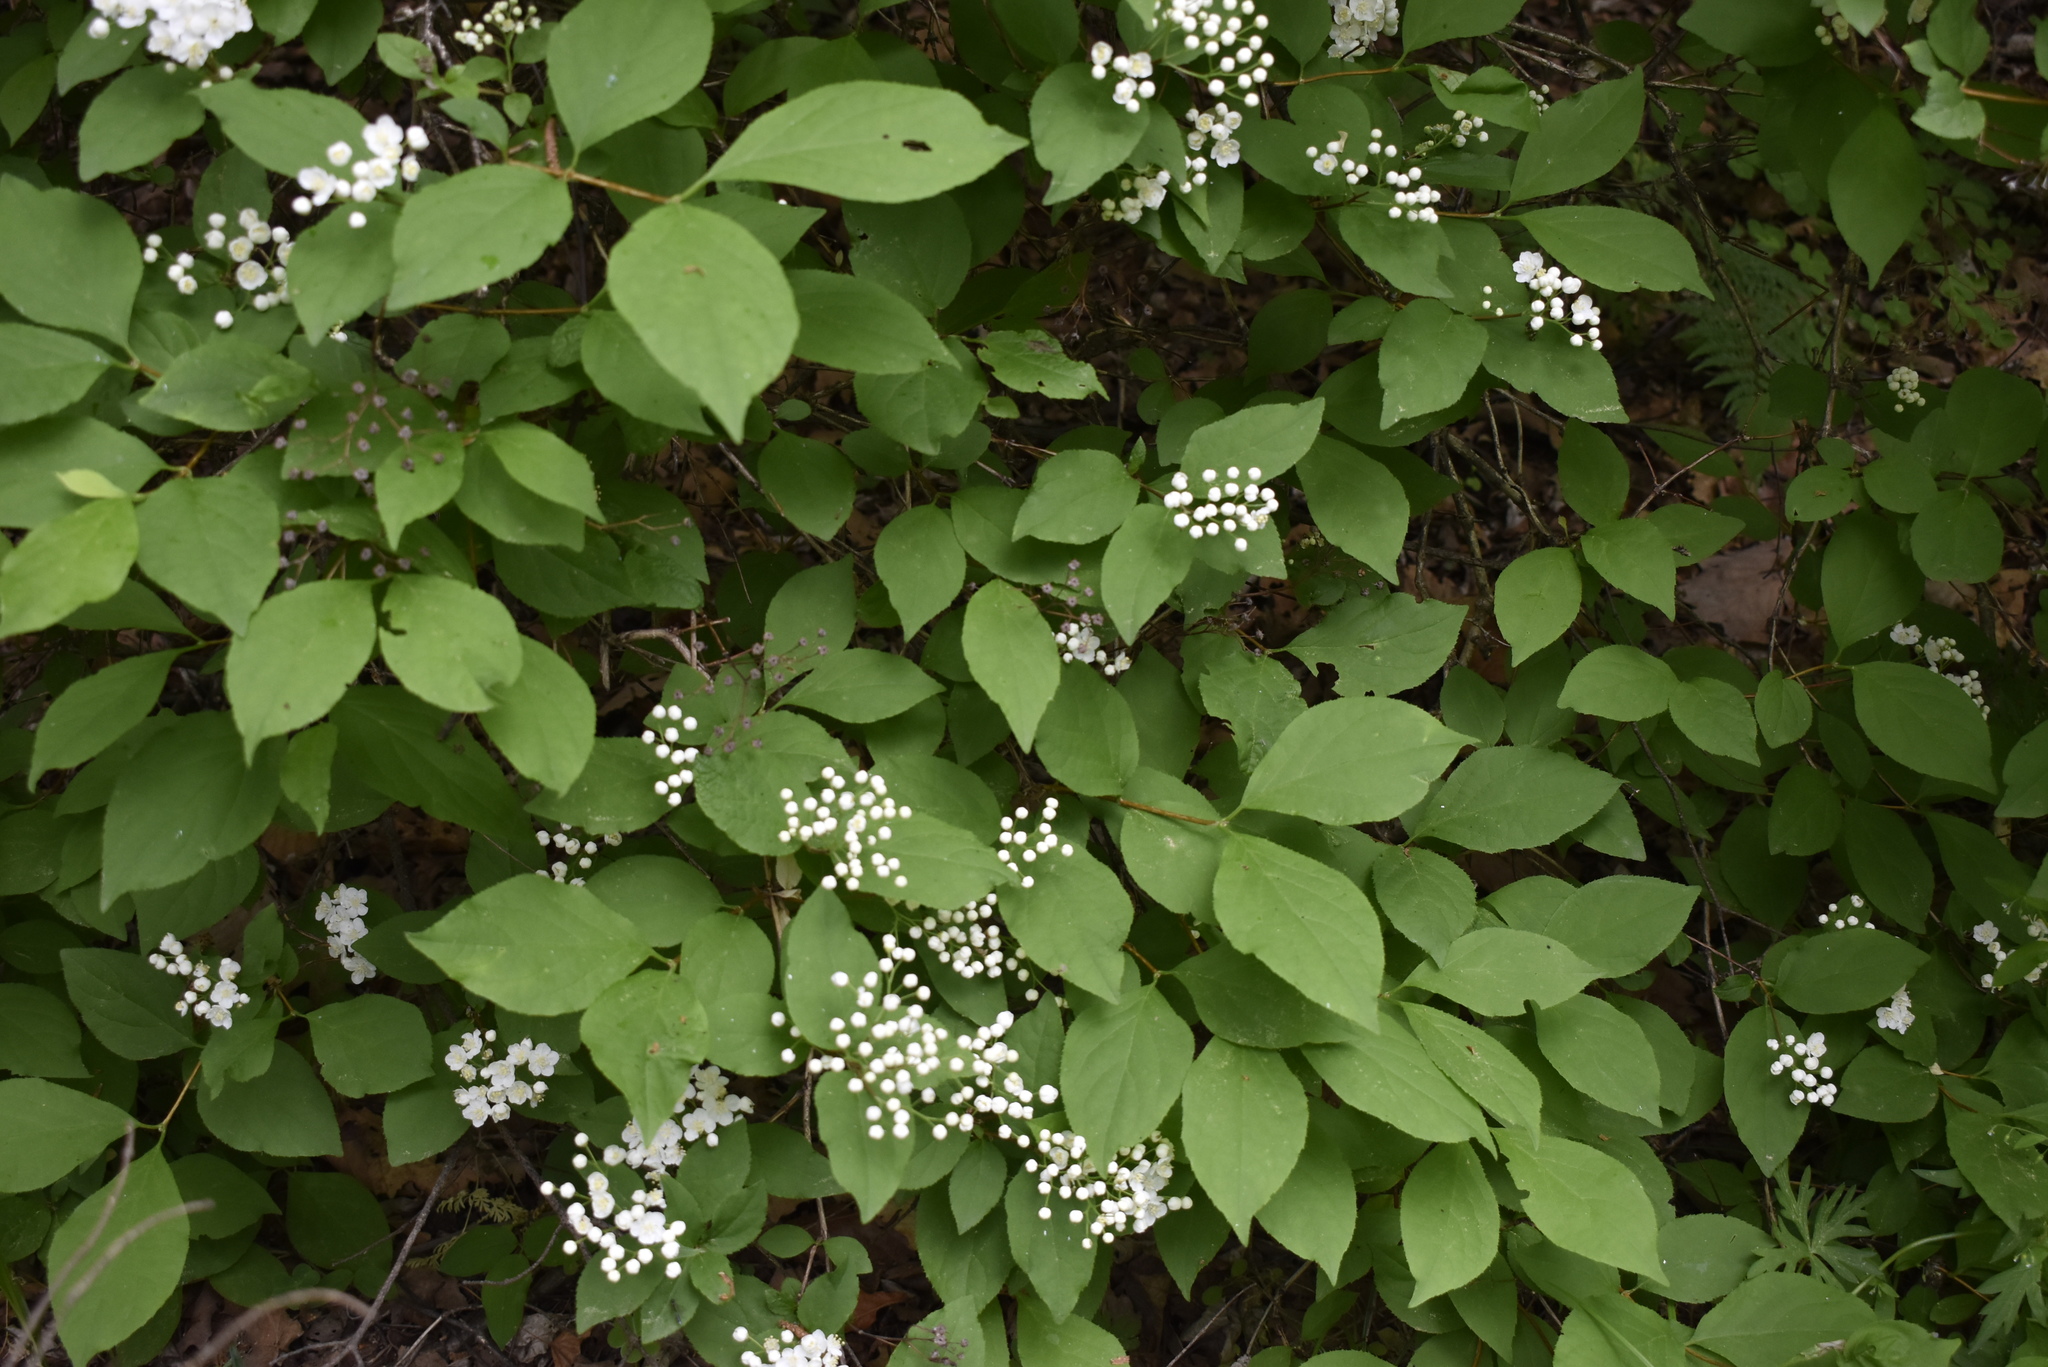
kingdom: Plantae
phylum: Tracheophyta
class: Magnoliopsida
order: Cornales
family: Hydrangeaceae
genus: Deutzia
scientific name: Deutzia parviflora
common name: Mongolian pride-of-rochester
